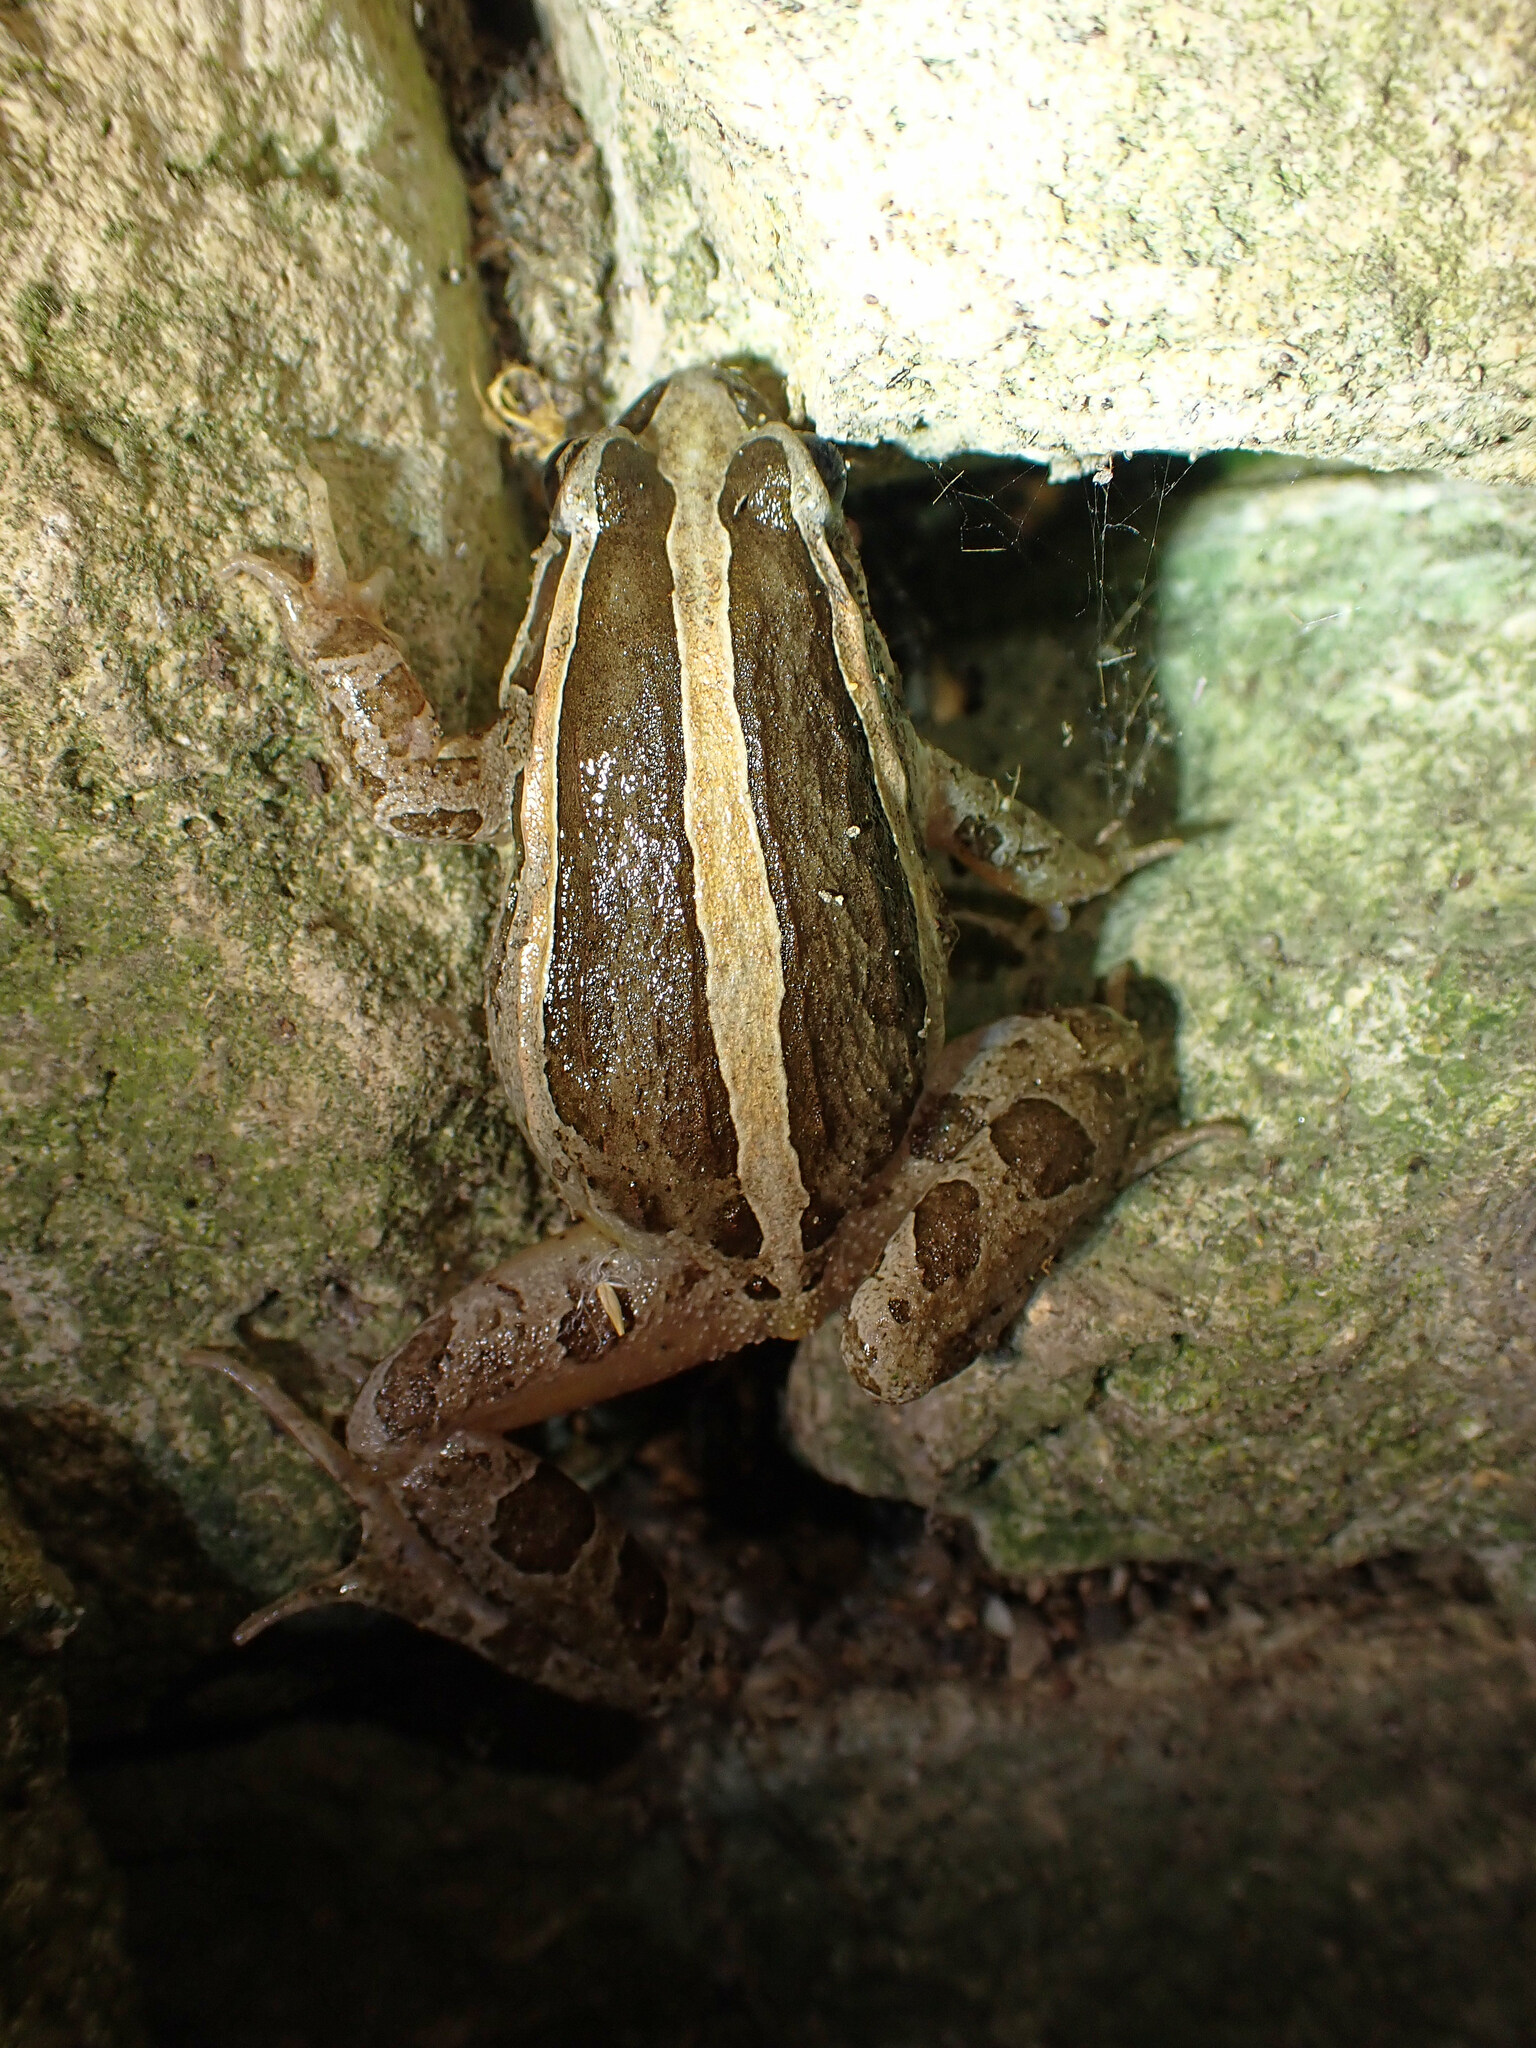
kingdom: Animalia
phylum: Chordata
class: Amphibia
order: Anura
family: Alytidae
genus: Discoglossus
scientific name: Discoglossus pictus
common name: Painted frog
